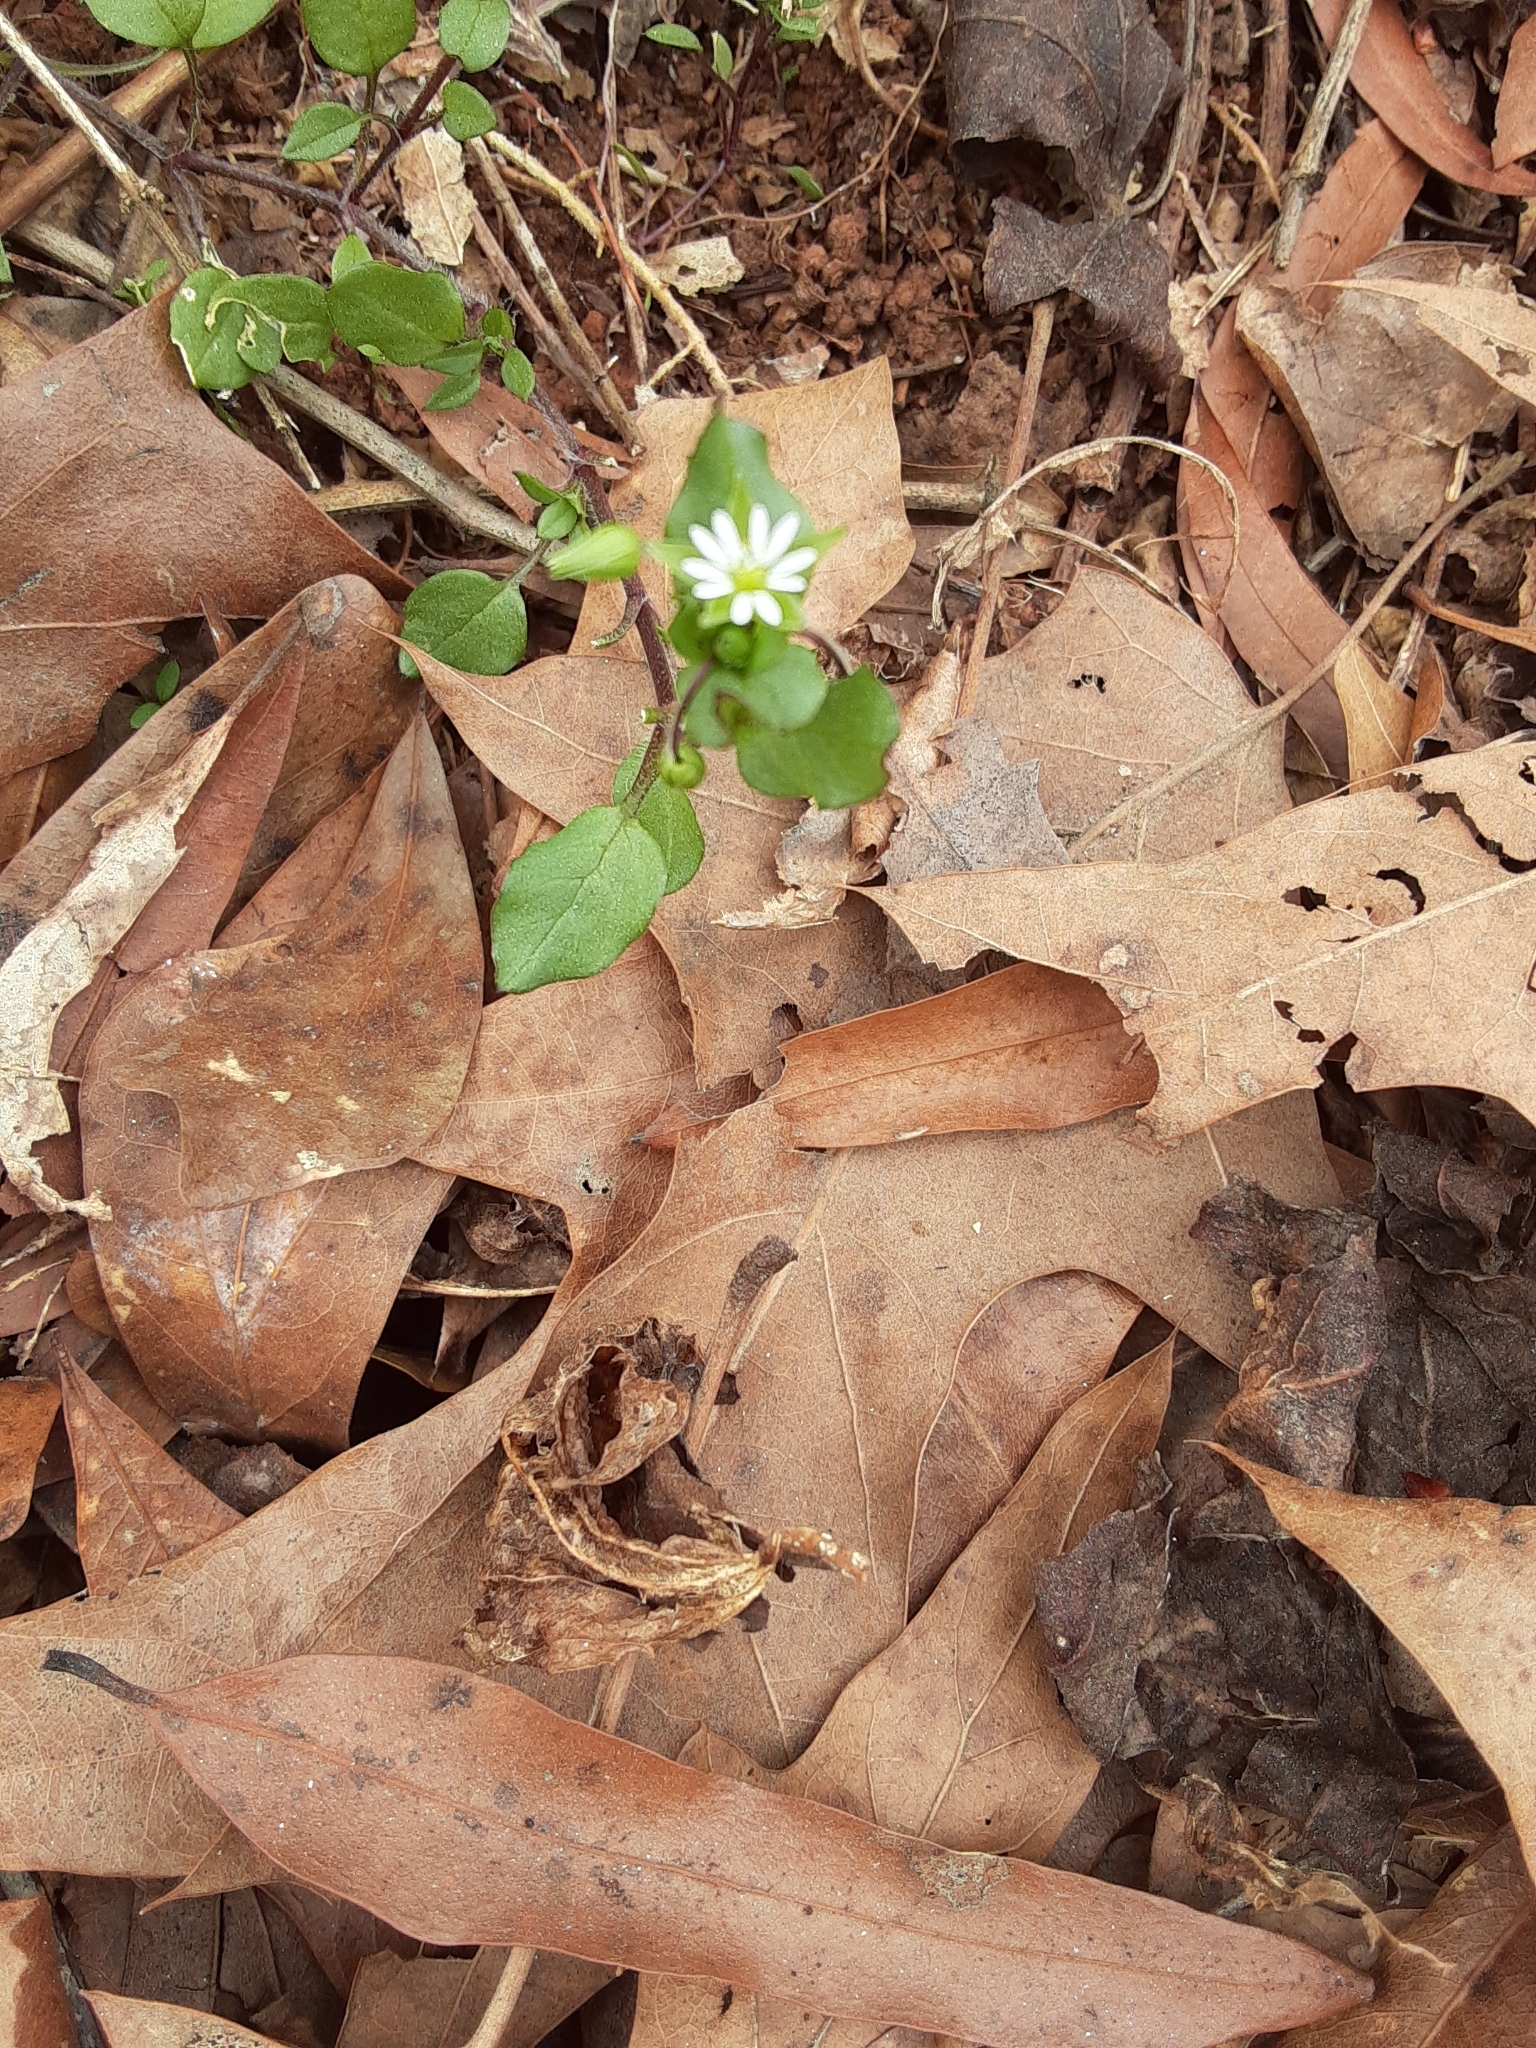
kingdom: Plantae
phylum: Tracheophyta
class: Magnoliopsida
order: Caryophyllales
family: Caryophyllaceae
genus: Stellaria
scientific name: Stellaria media
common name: Common chickweed
